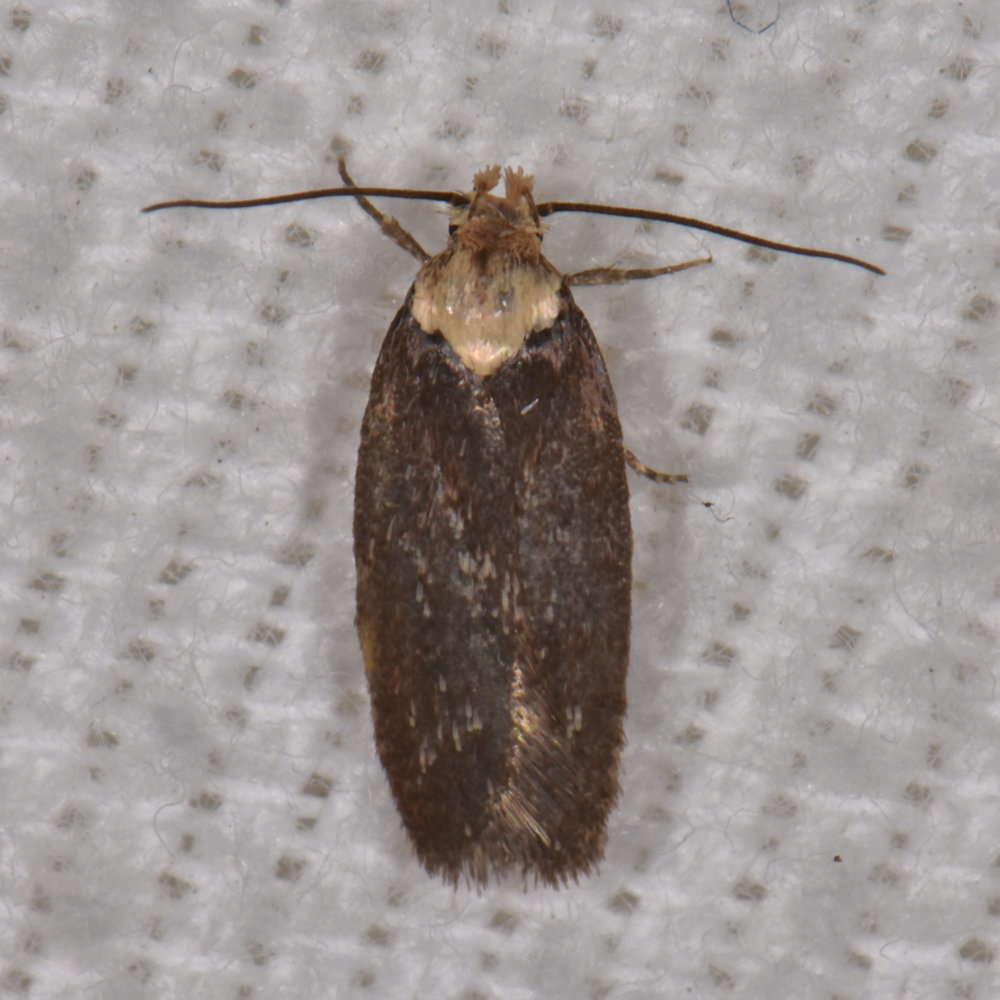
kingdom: Animalia
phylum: Arthropoda
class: Insecta
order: Lepidoptera
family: Depressariidae
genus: Depressaria
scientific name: Depressaria depressana
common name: Lost flat-body
